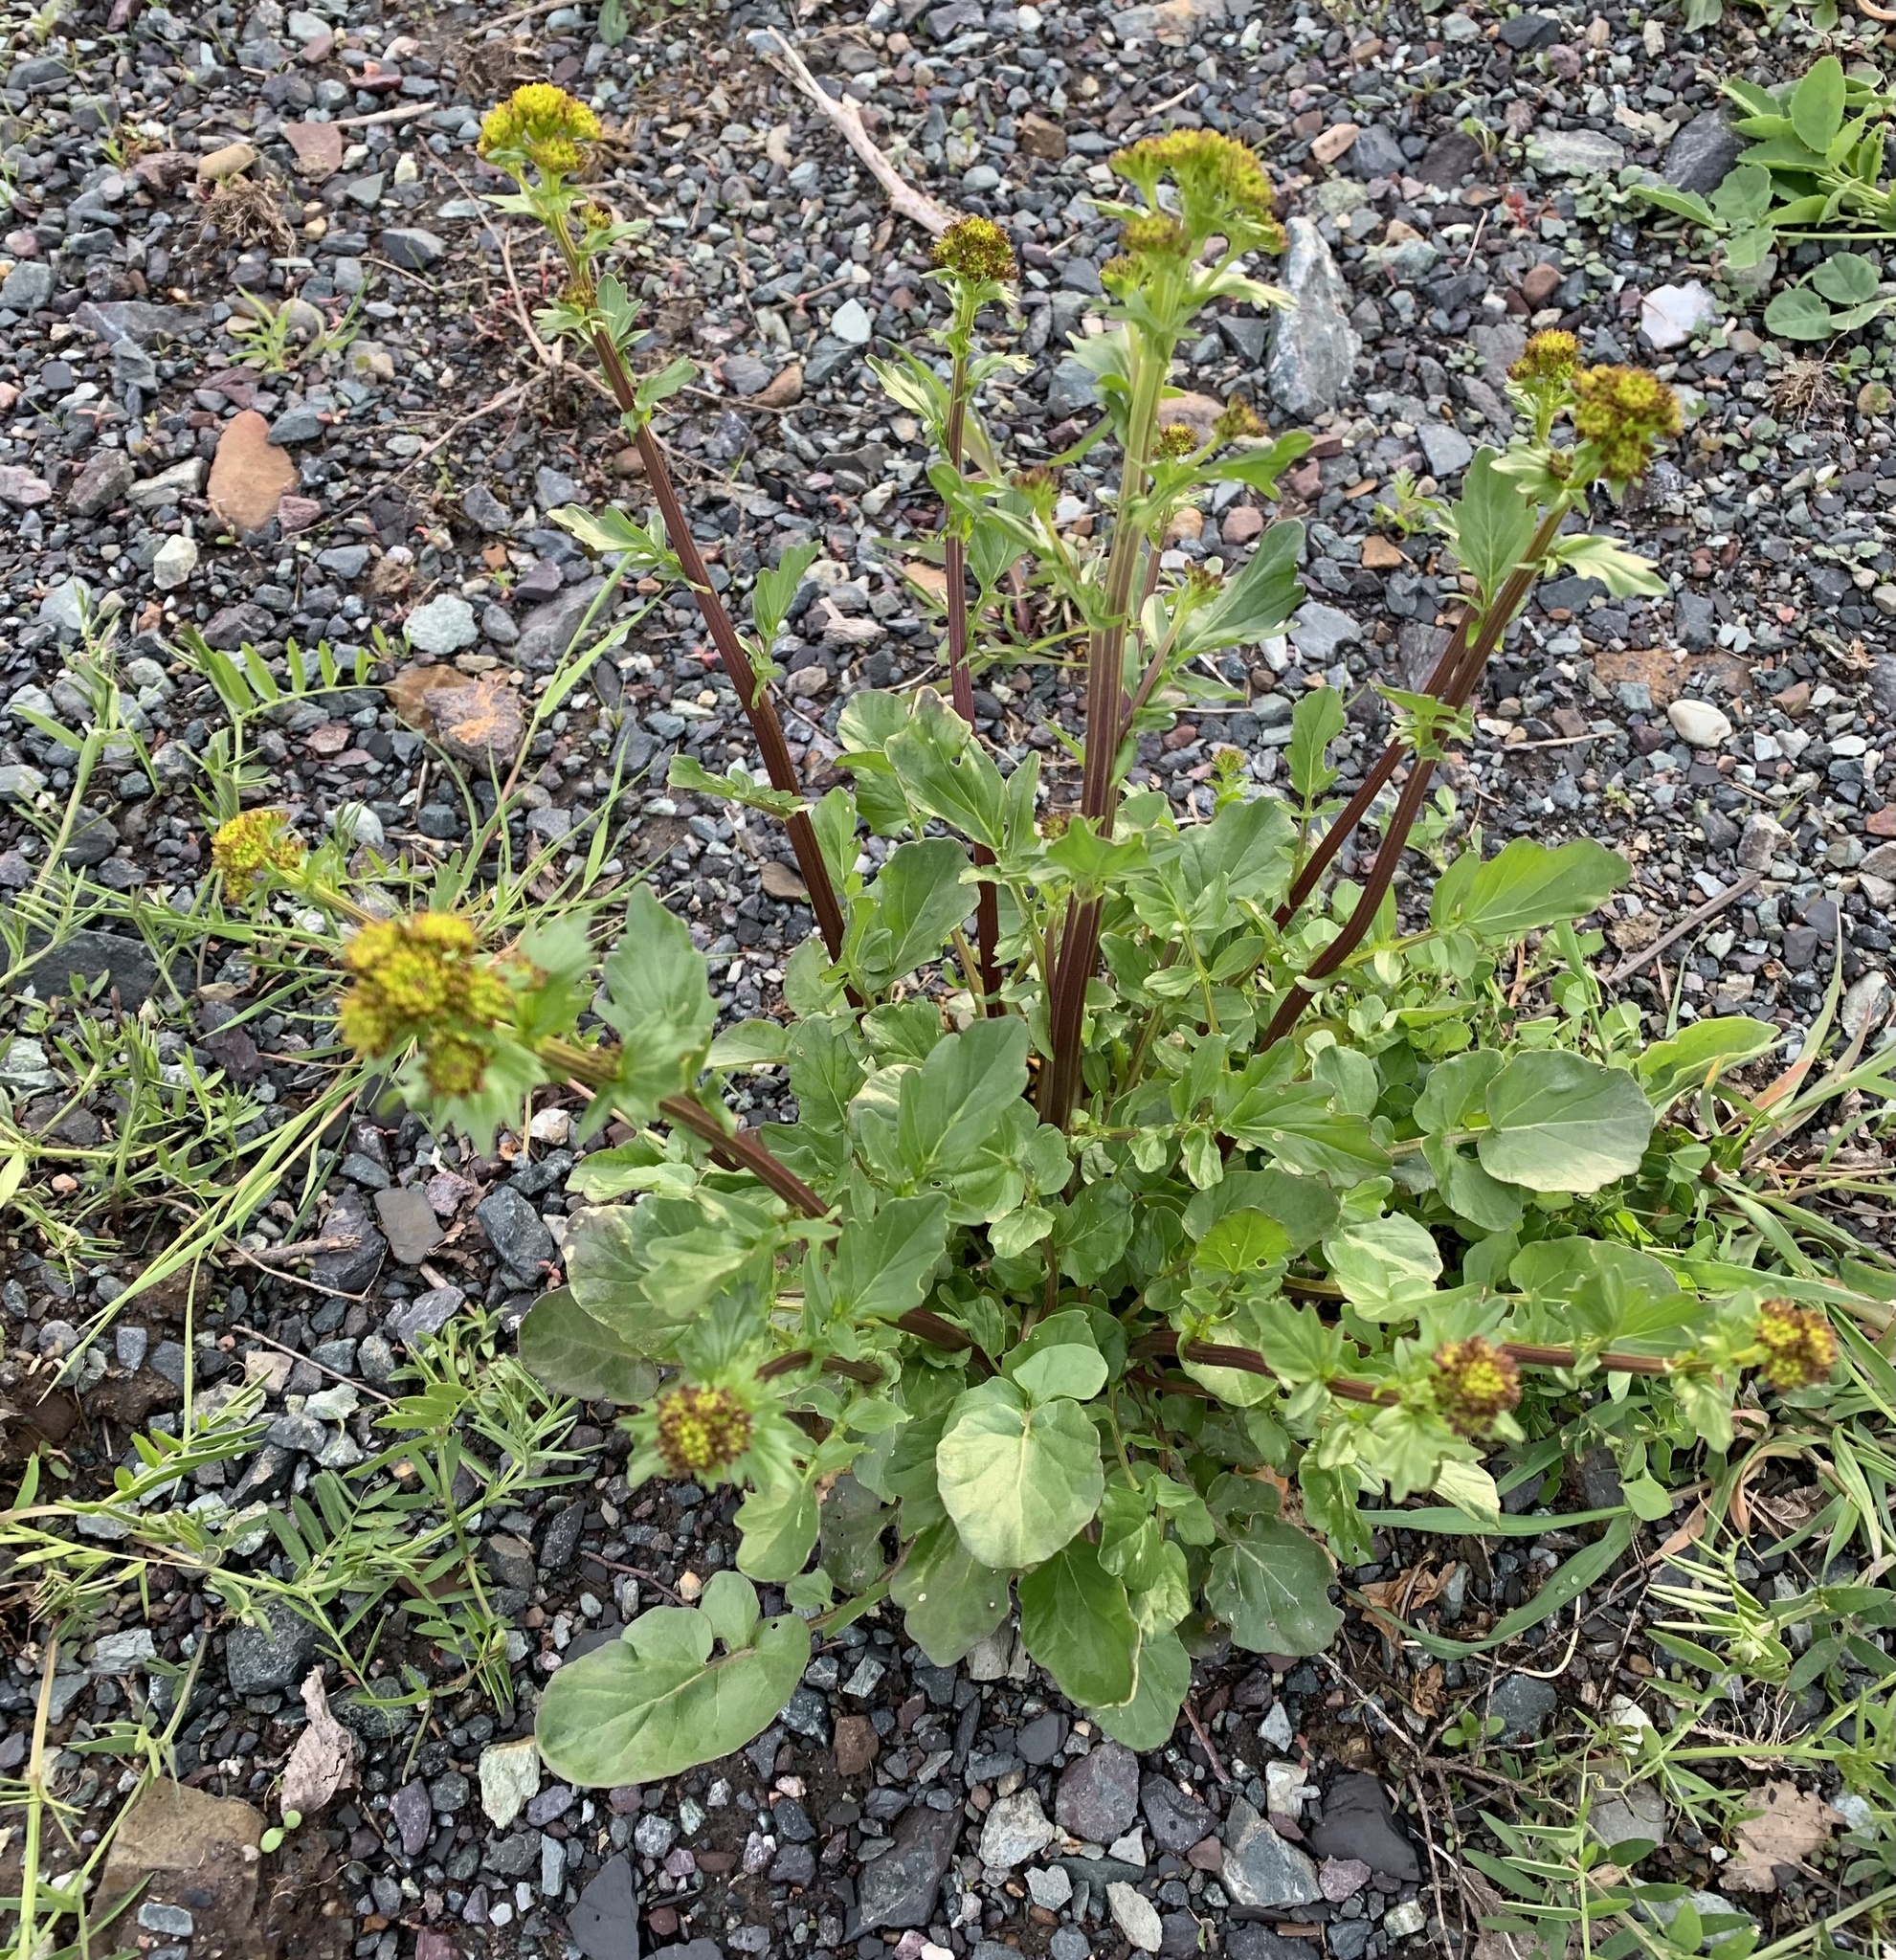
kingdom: Plantae
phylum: Tracheophyta
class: Magnoliopsida
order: Brassicales
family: Brassicaceae
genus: Barbarea
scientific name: Barbarea vulgaris
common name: Cressy-greens
